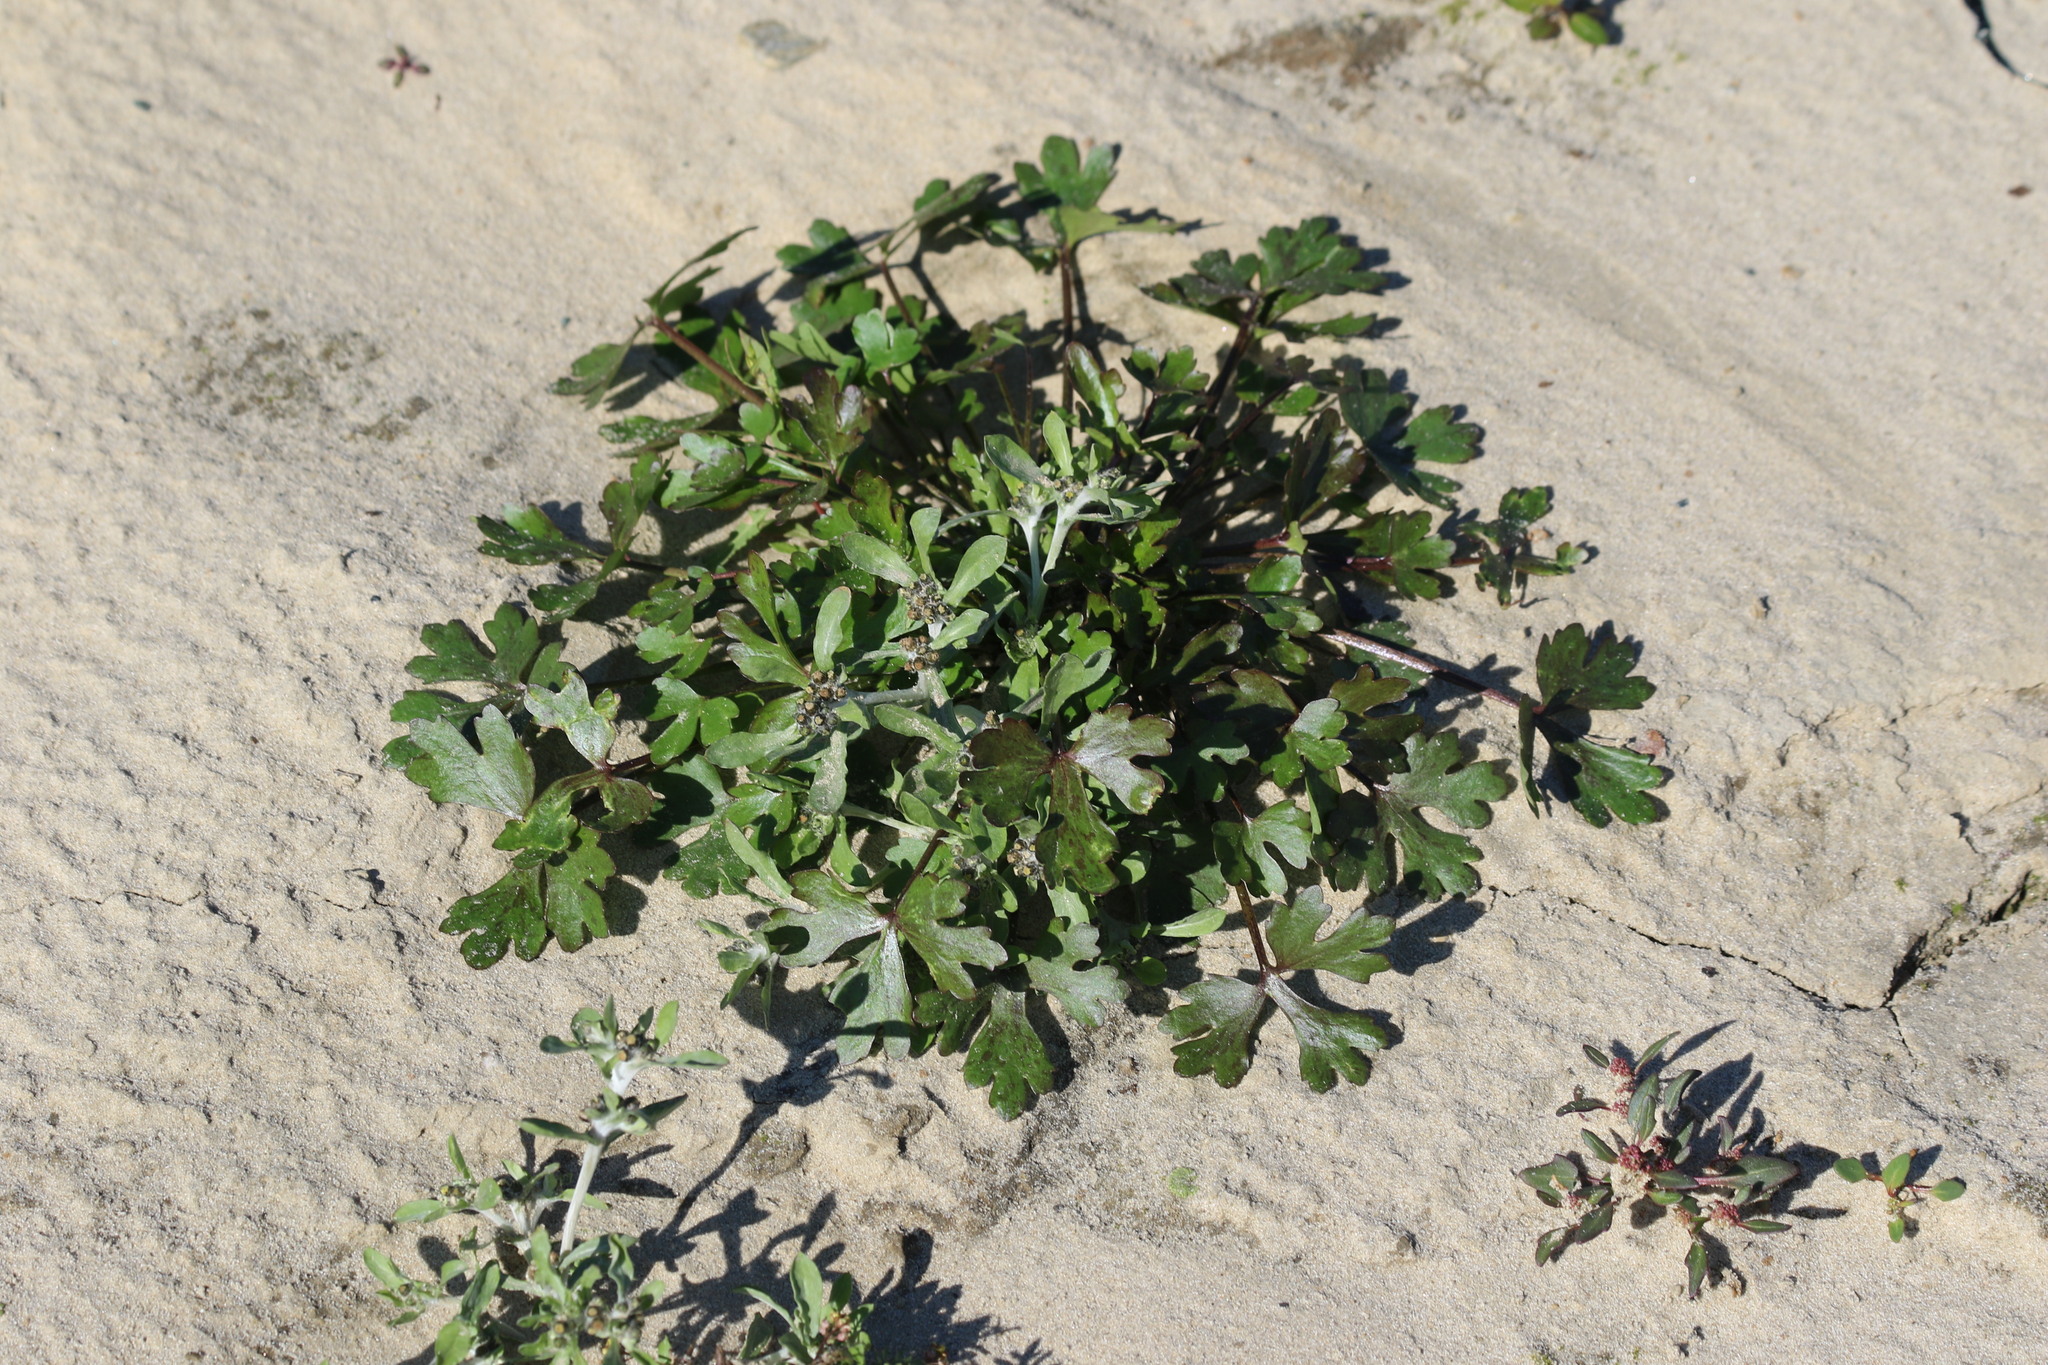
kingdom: Plantae
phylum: Tracheophyta
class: Magnoliopsida
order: Ranunculales
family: Ranunculaceae
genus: Ranunculus
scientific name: Ranunculus sceleratus
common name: Celery-leaved buttercup
